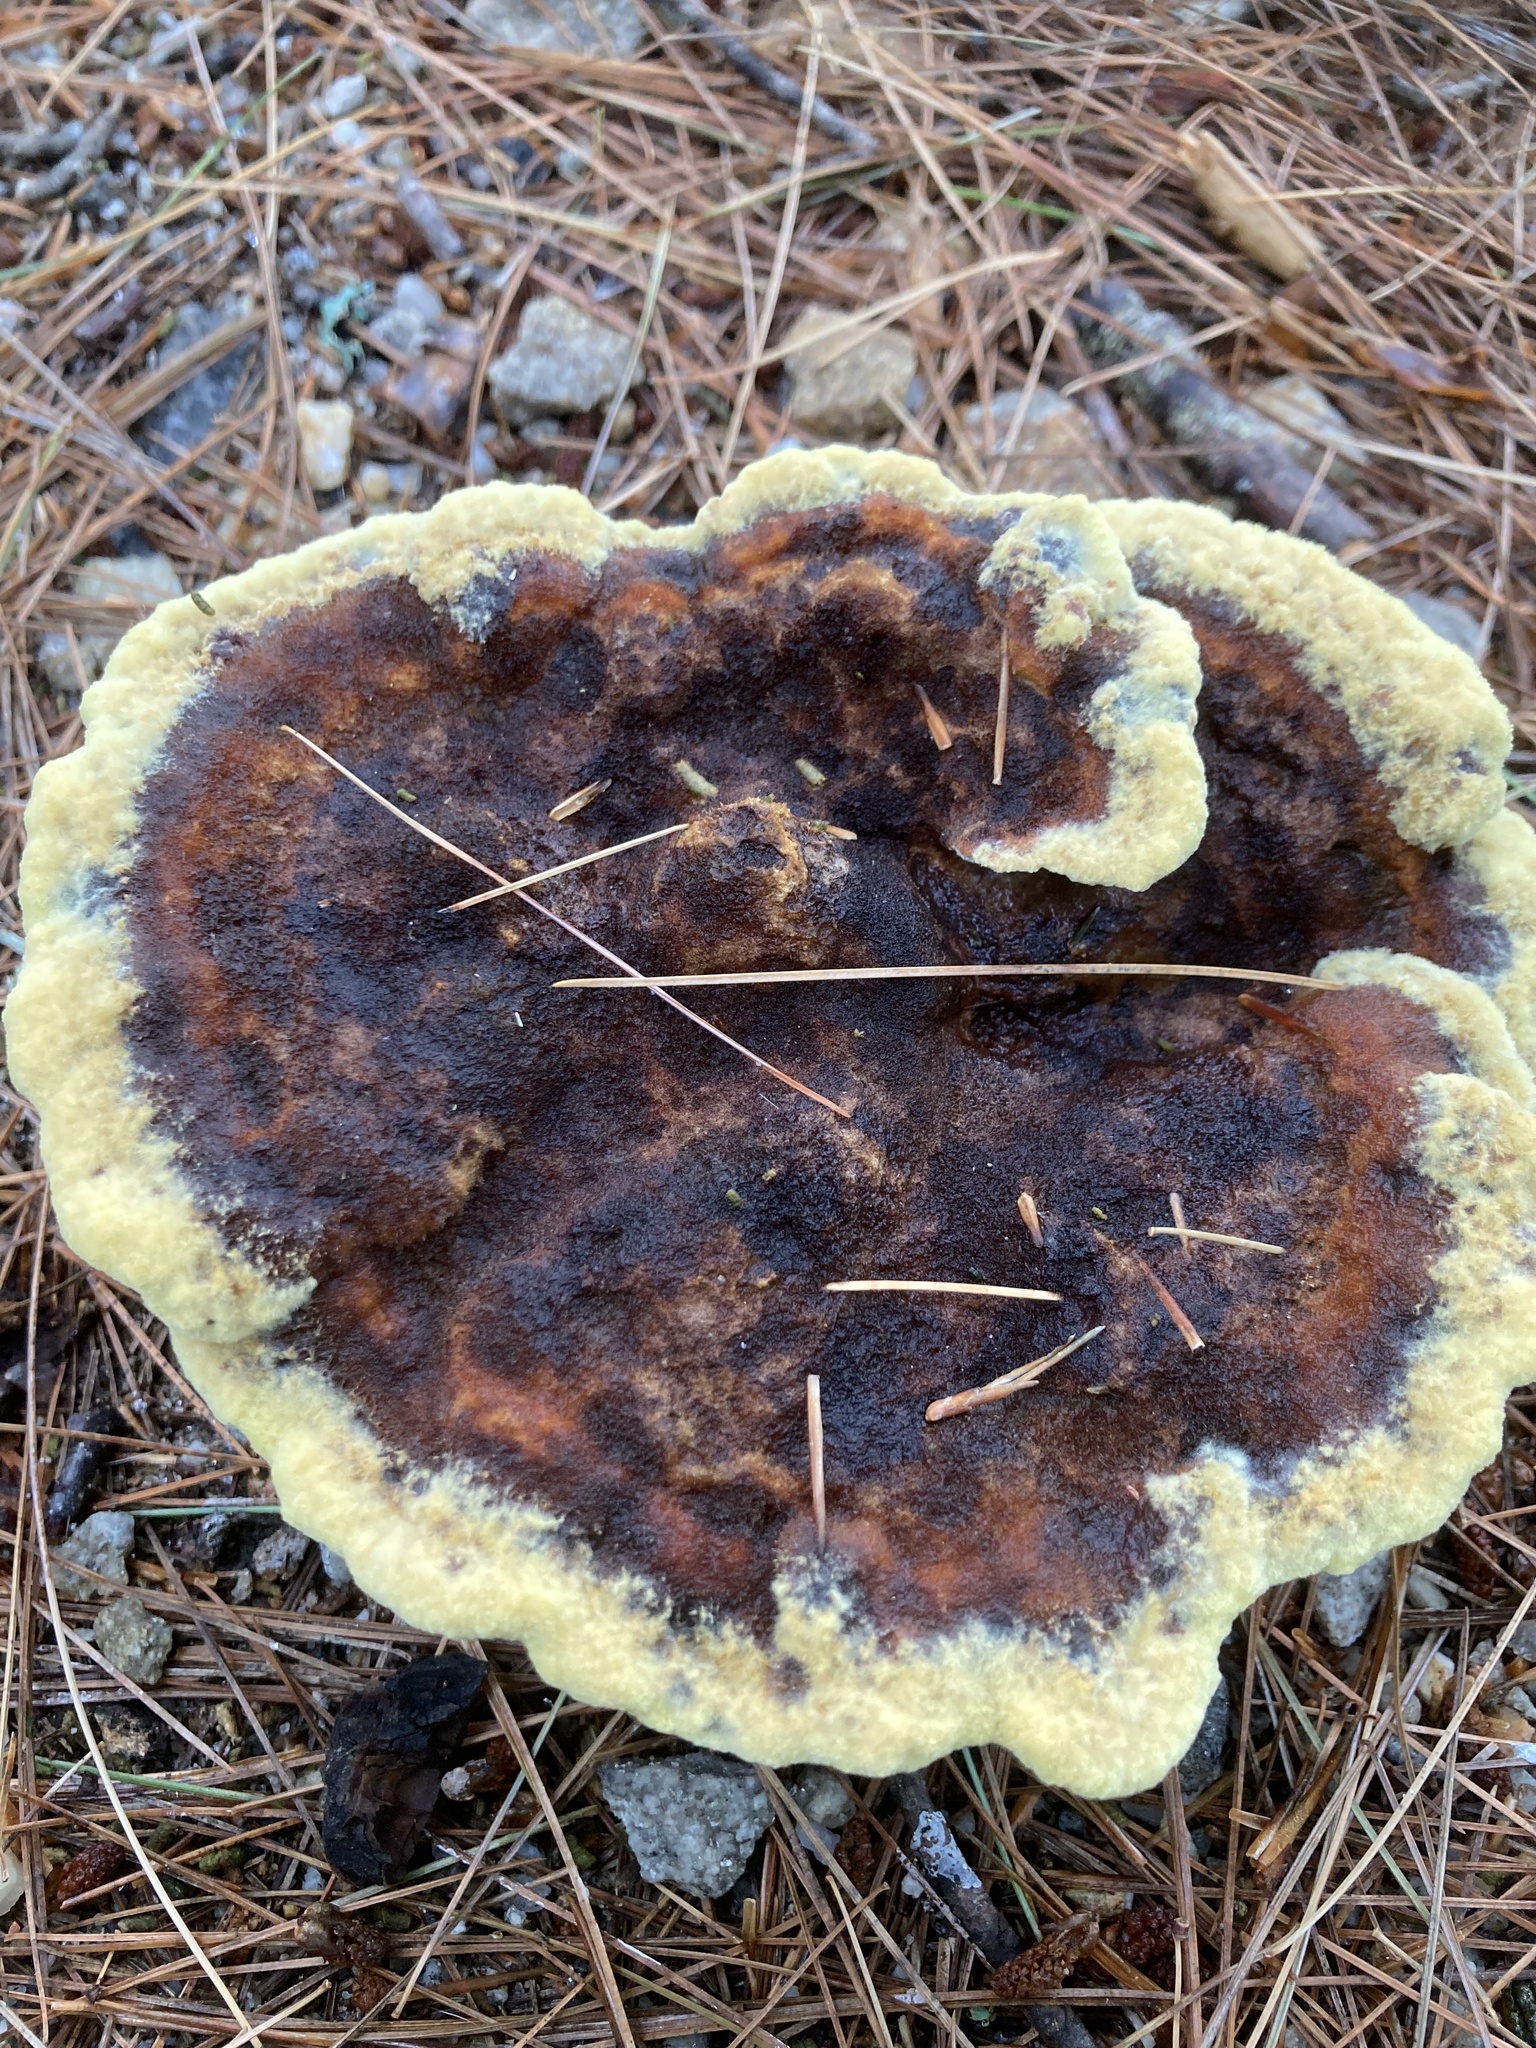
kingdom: Fungi
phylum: Basidiomycota
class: Agaricomycetes
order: Polyporales
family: Laetiporaceae
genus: Phaeolus
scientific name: Phaeolus schweinitzii
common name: Dyer's mazegill
